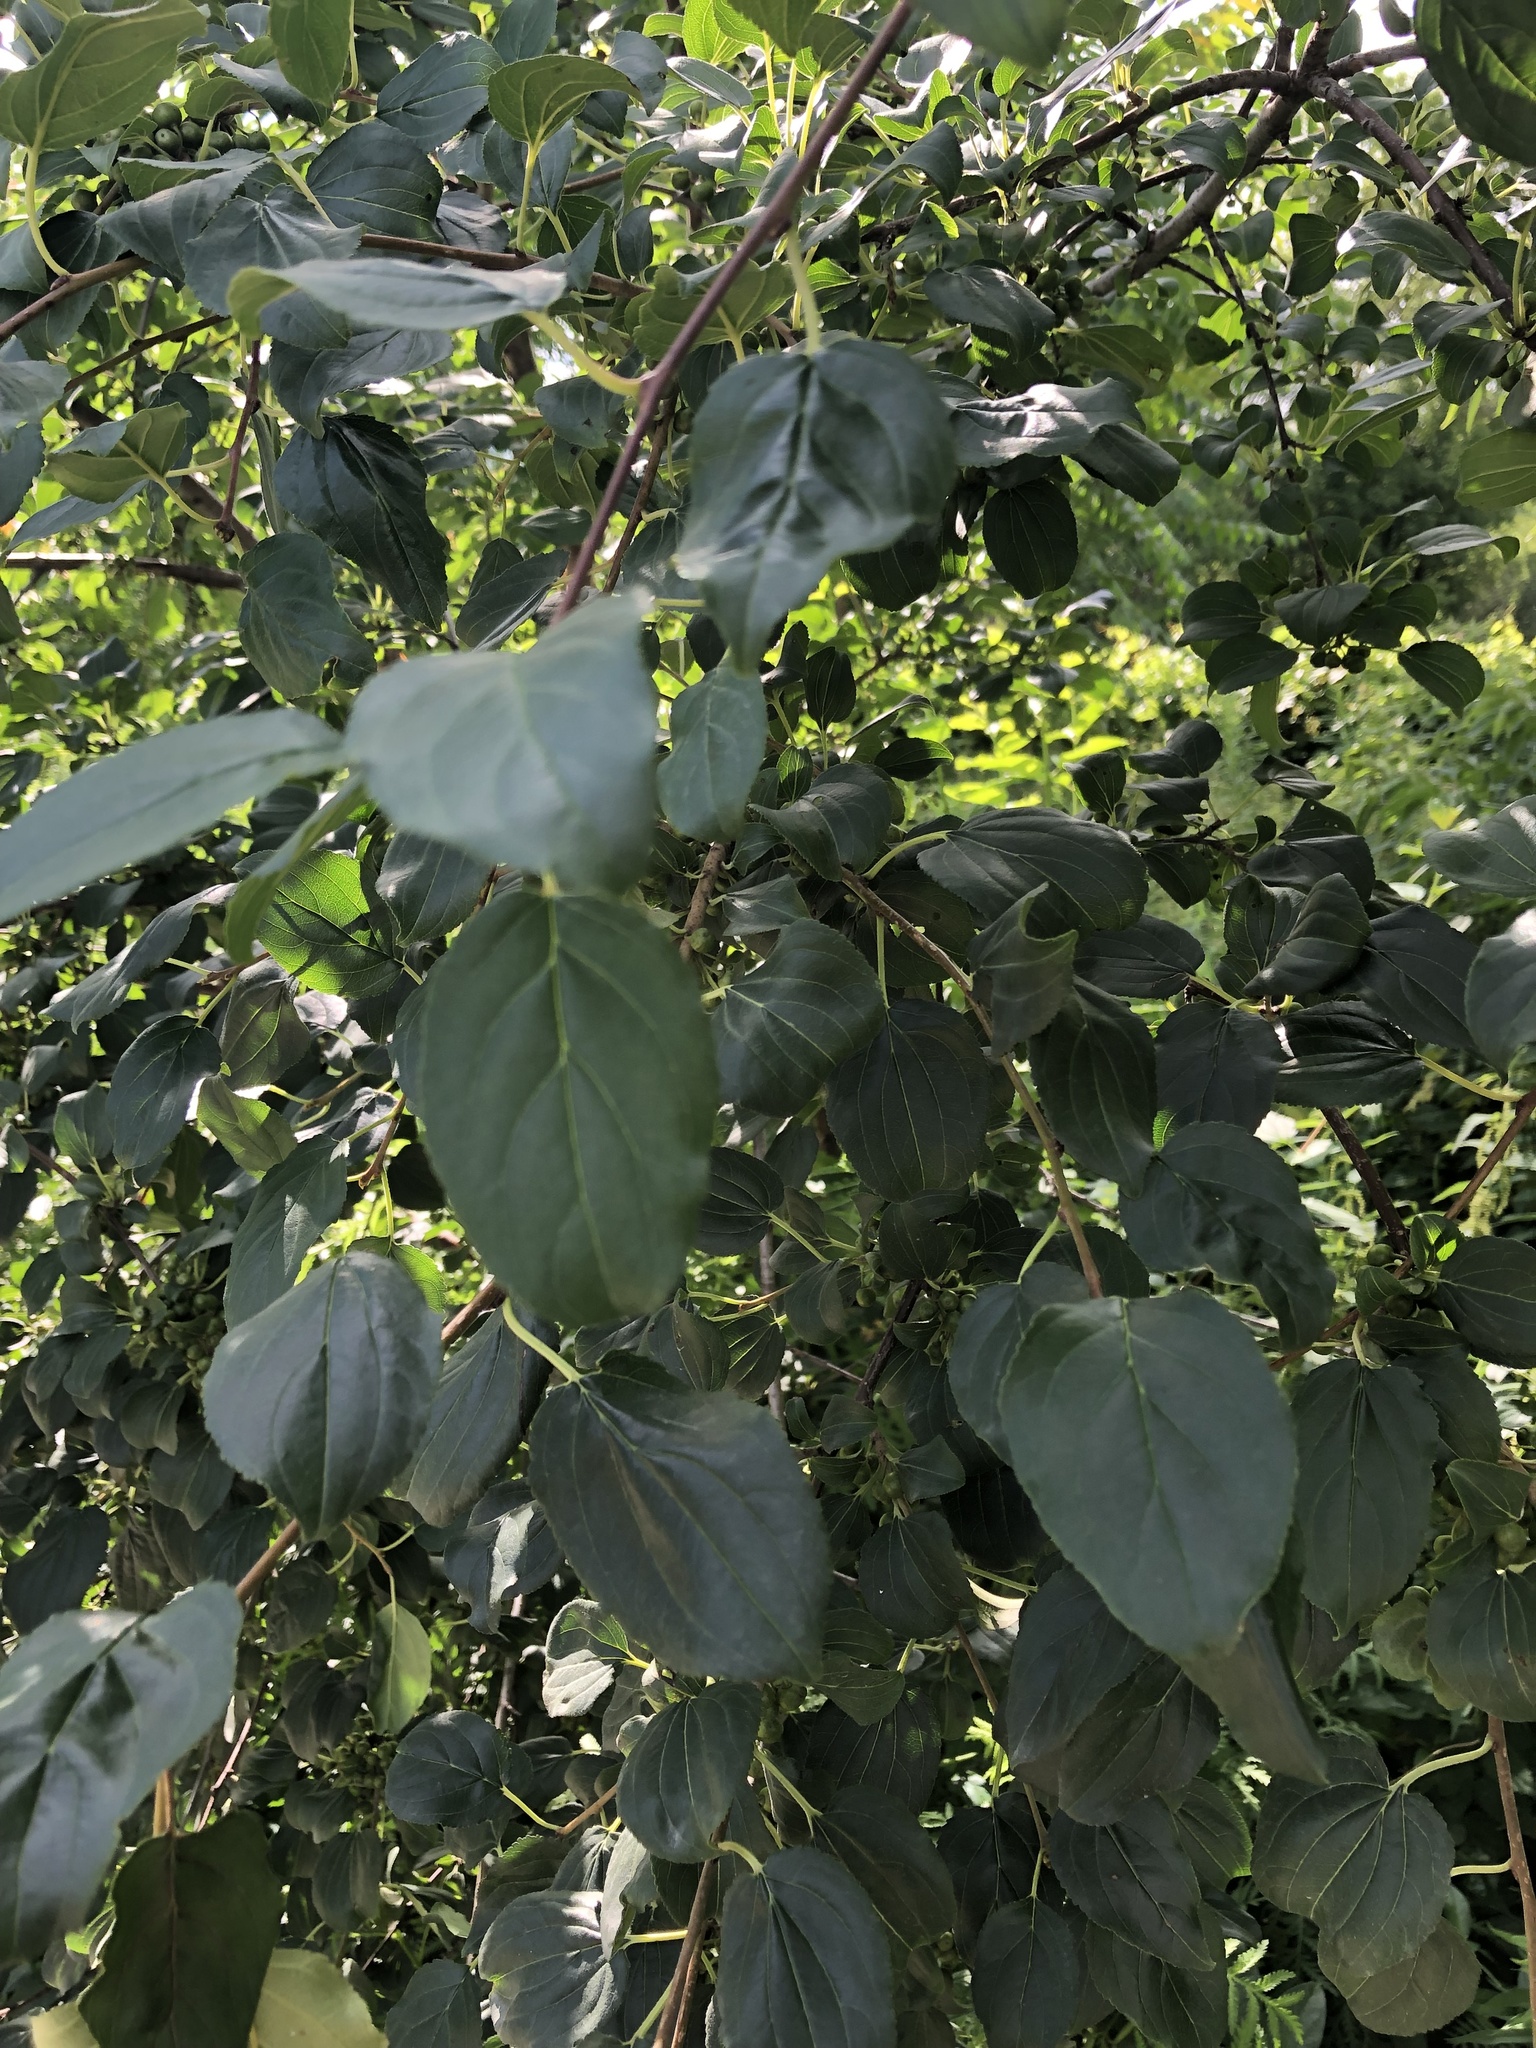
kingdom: Plantae
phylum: Tracheophyta
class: Magnoliopsida
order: Rosales
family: Rhamnaceae
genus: Rhamnus
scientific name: Rhamnus cathartica
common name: Common buckthorn
